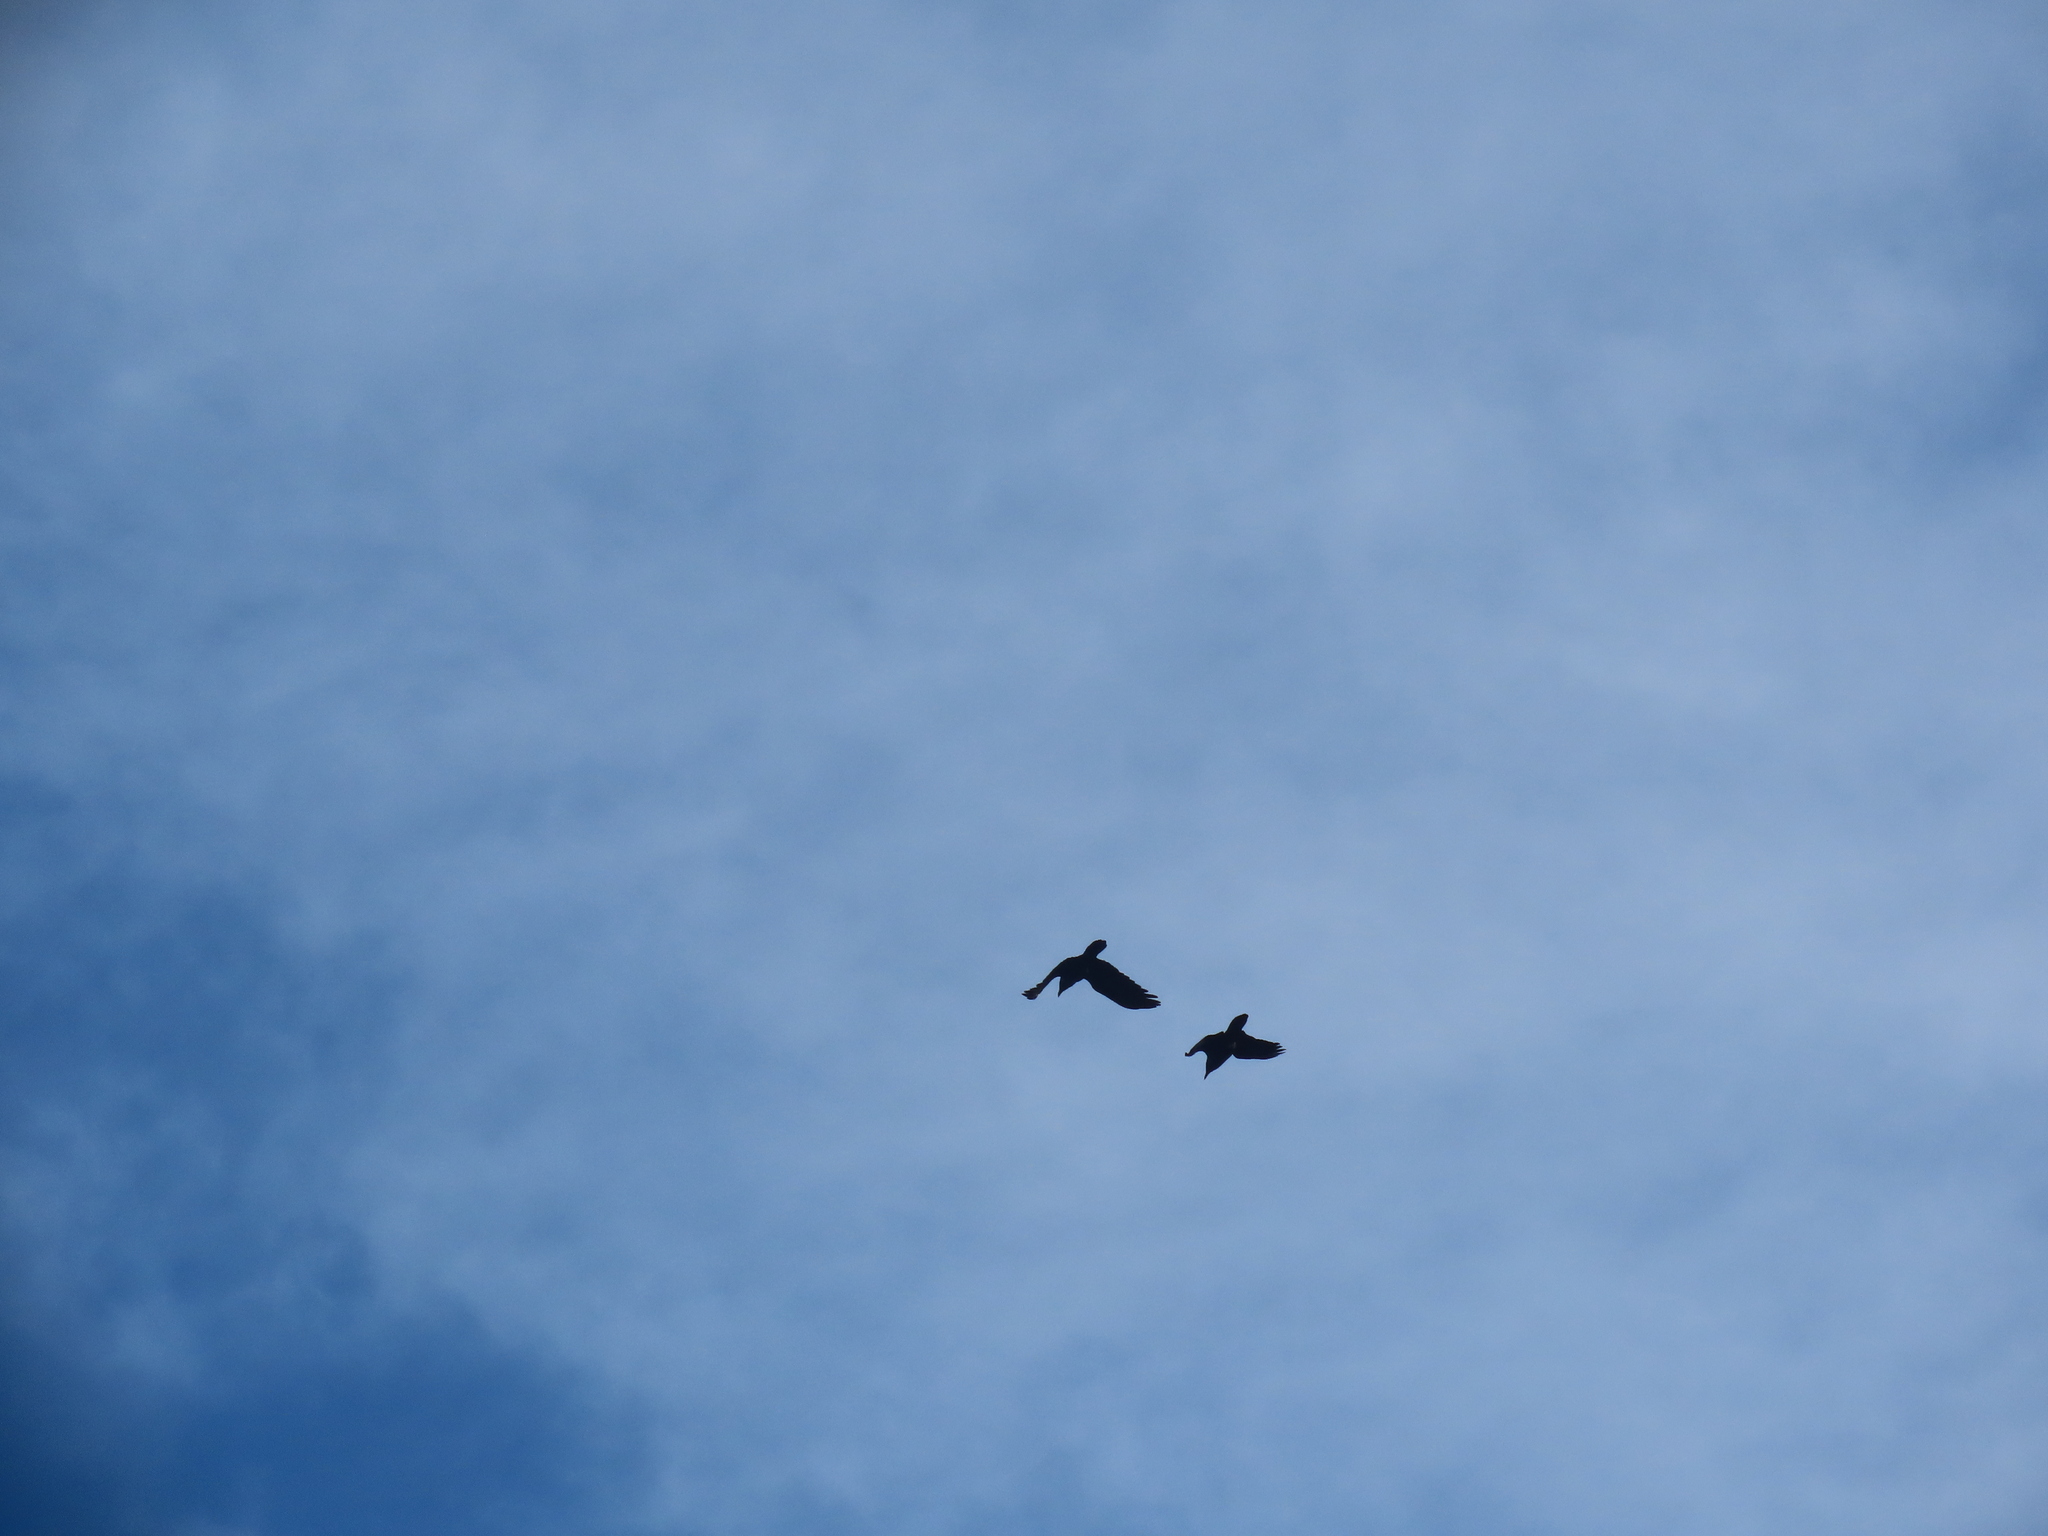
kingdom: Animalia
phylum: Chordata
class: Aves
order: Passeriformes
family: Corvidae
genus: Corvus
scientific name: Corvus corax
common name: Common raven
